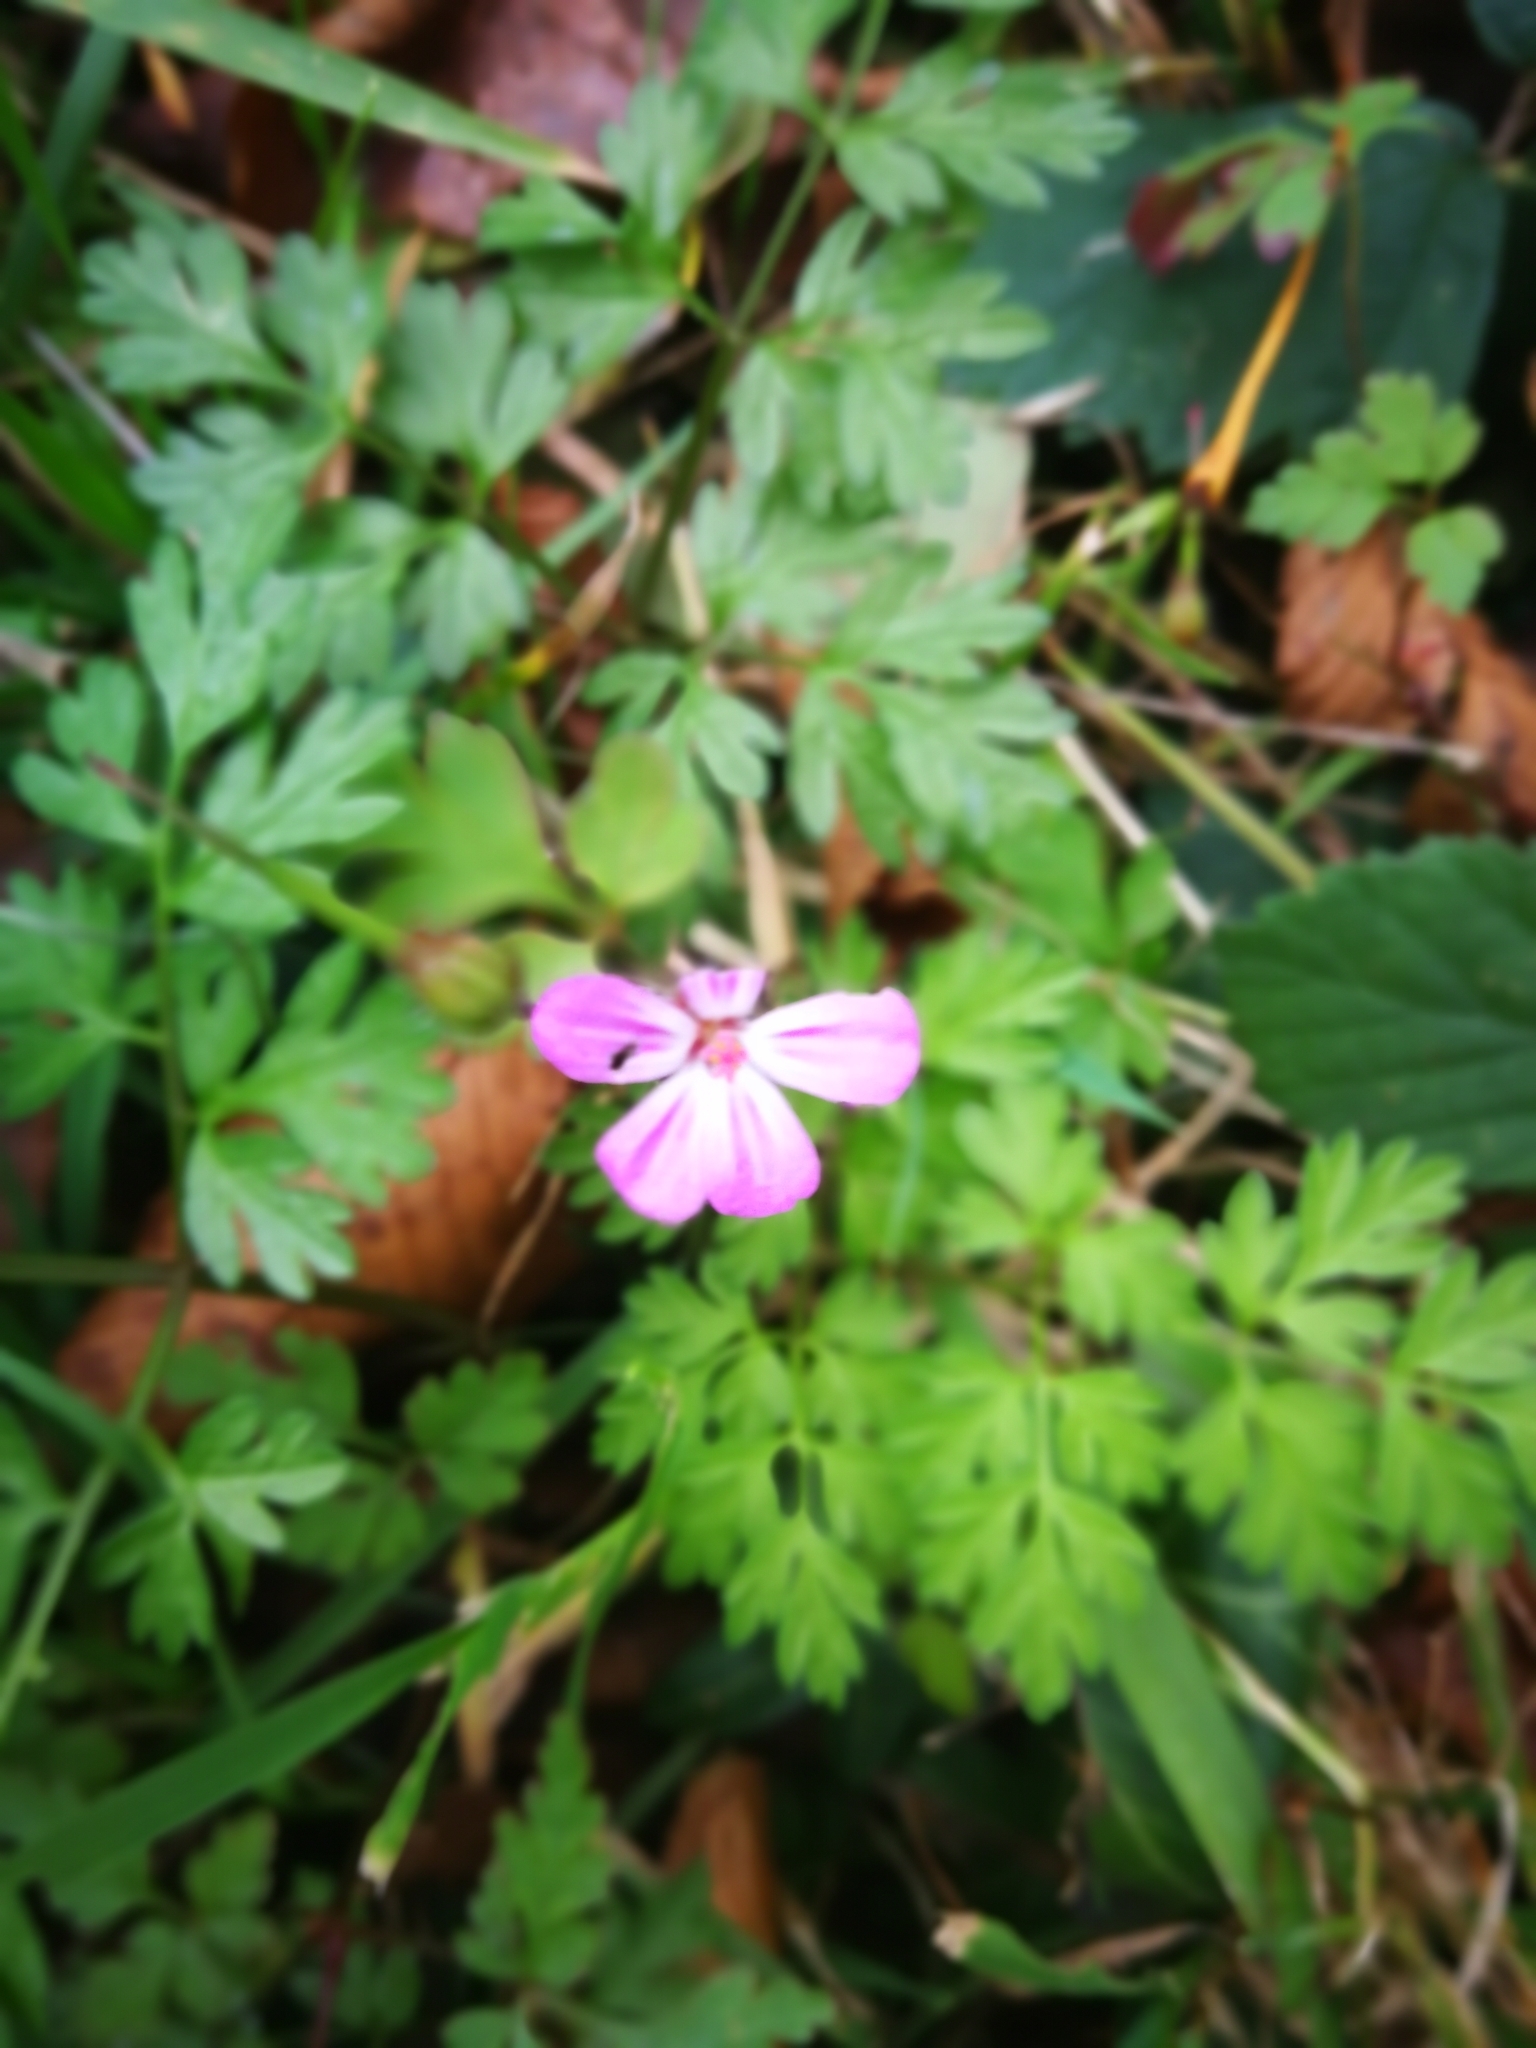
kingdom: Plantae
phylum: Tracheophyta
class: Magnoliopsida
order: Geraniales
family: Geraniaceae
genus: Geranium
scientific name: Geranium robertianum
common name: Herb-robert
